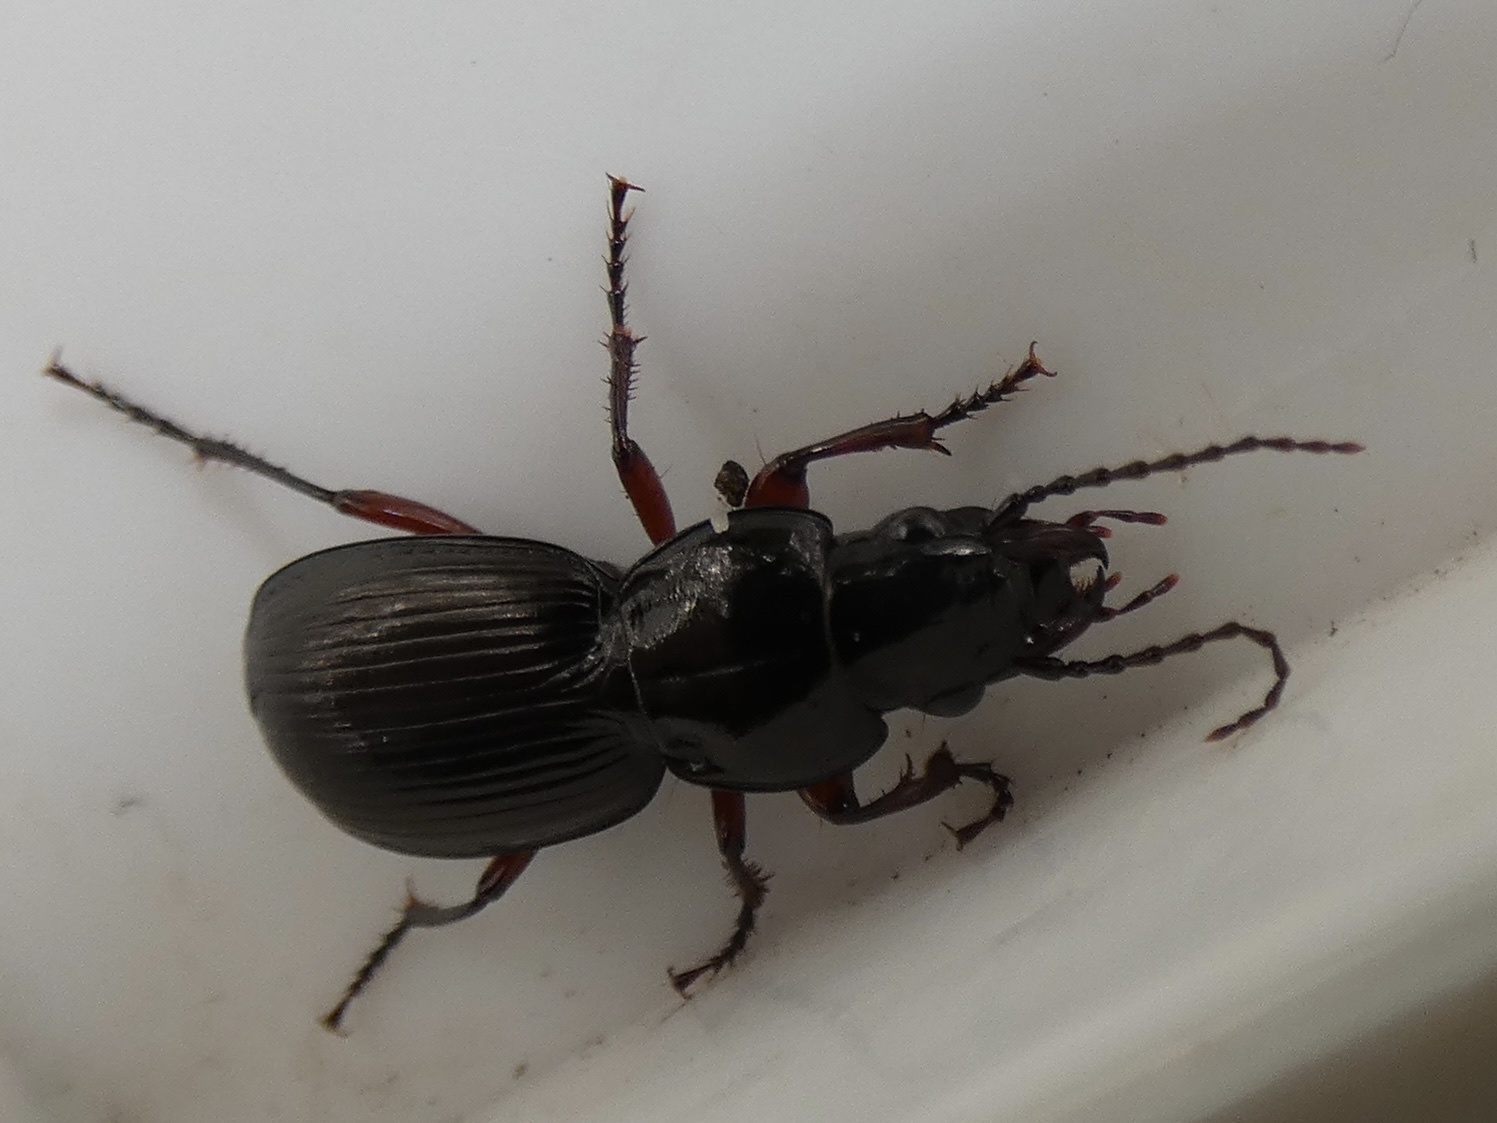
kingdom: Animalia
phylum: Arthropoda
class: Insecta
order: Coleoptera
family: Carabidae
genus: Pterostichus
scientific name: Pterostichus madidus
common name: Black clock
